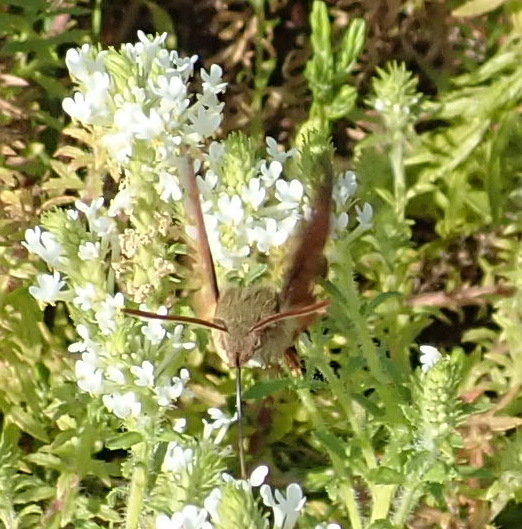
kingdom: Animalia
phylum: Arthropoda
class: Insecta
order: Lepidoptera
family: Sphingidae
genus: Macroglossum
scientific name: Macroglossum trochilus
